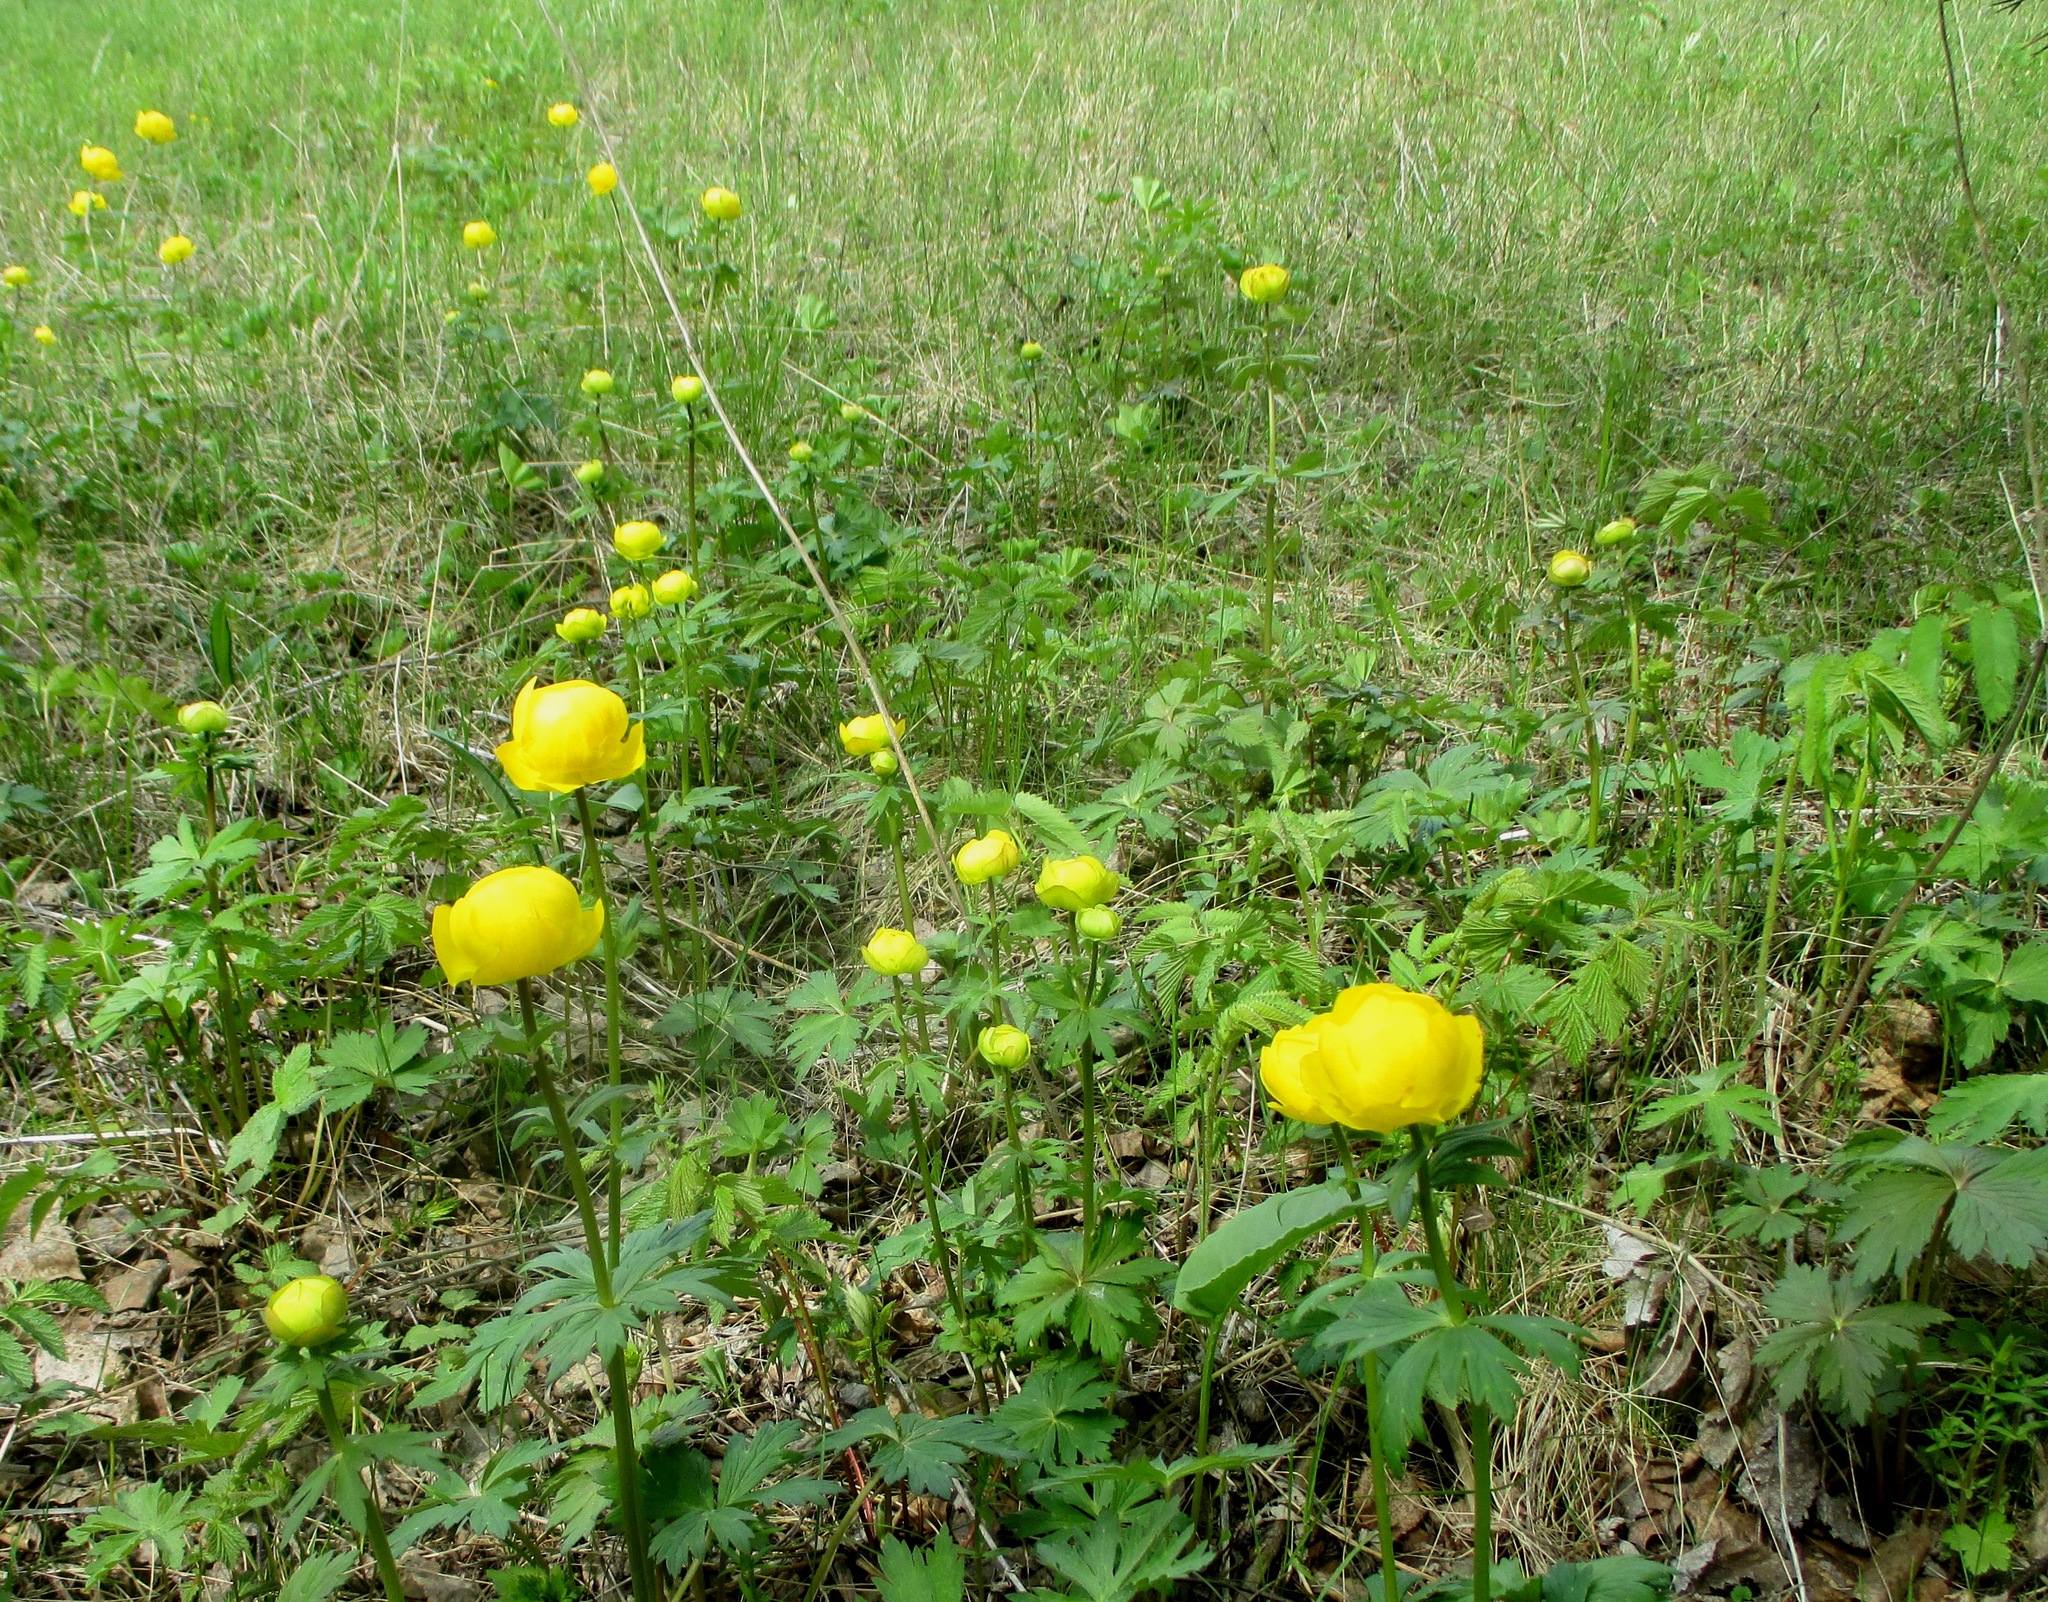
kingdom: Plantae
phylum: Tracheophyta
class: Magnoliopsida
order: Ranunculales
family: Ranunculaceae
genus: Trollius
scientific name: Trollius europaeus
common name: European globeflower
